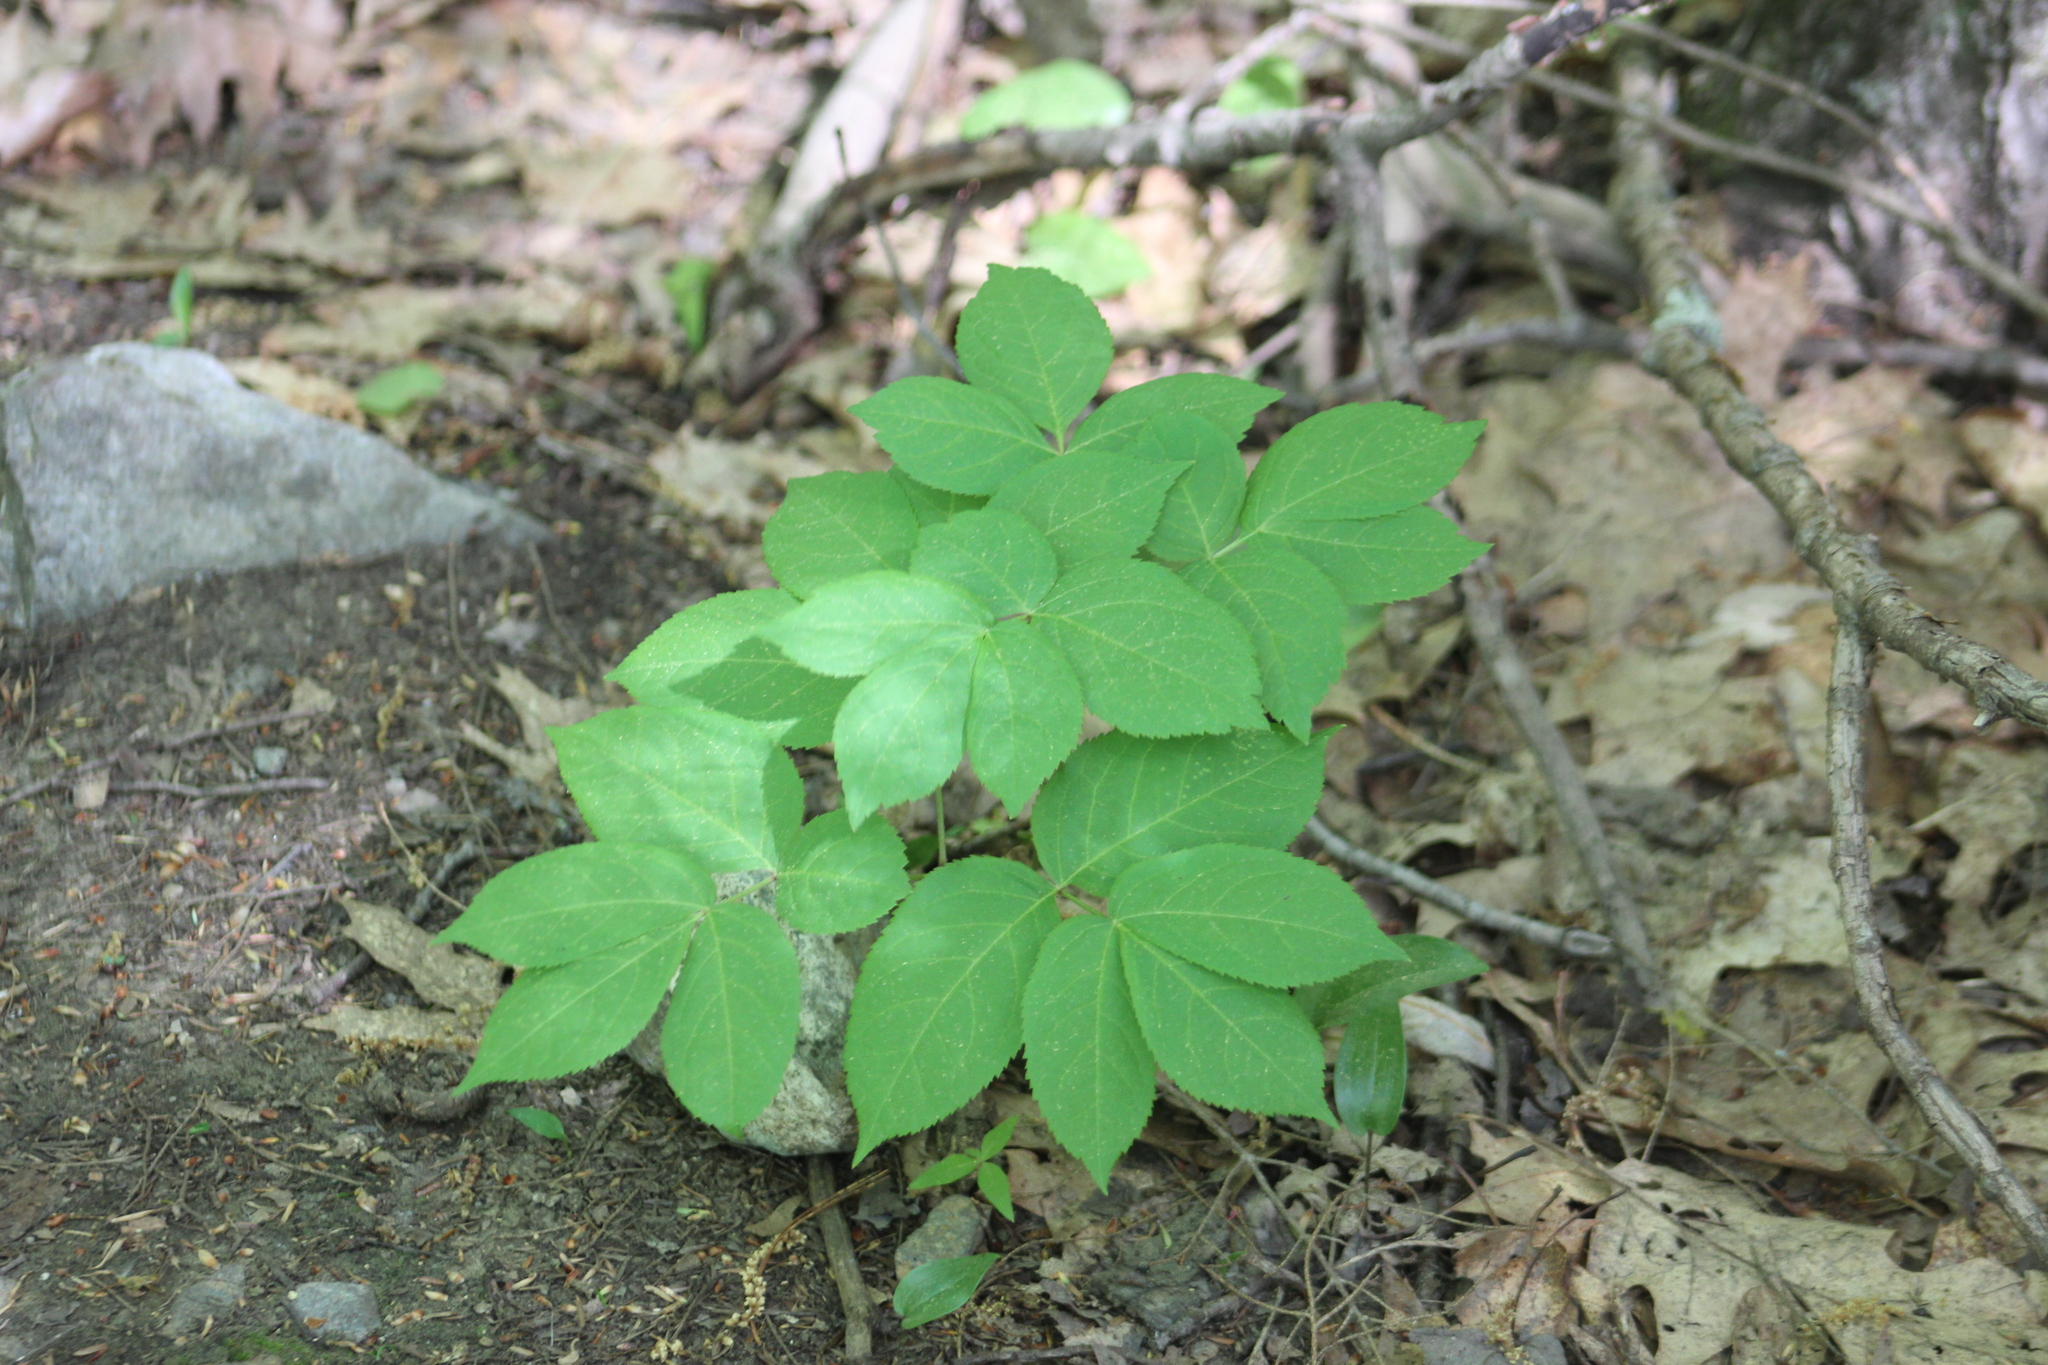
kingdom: Plantae
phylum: Tracheophyta
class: Magnoliopsida
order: Apiales
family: Araliaceae
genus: Aralia
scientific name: Aralia nudicaulis
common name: Wild sarsaparilla
